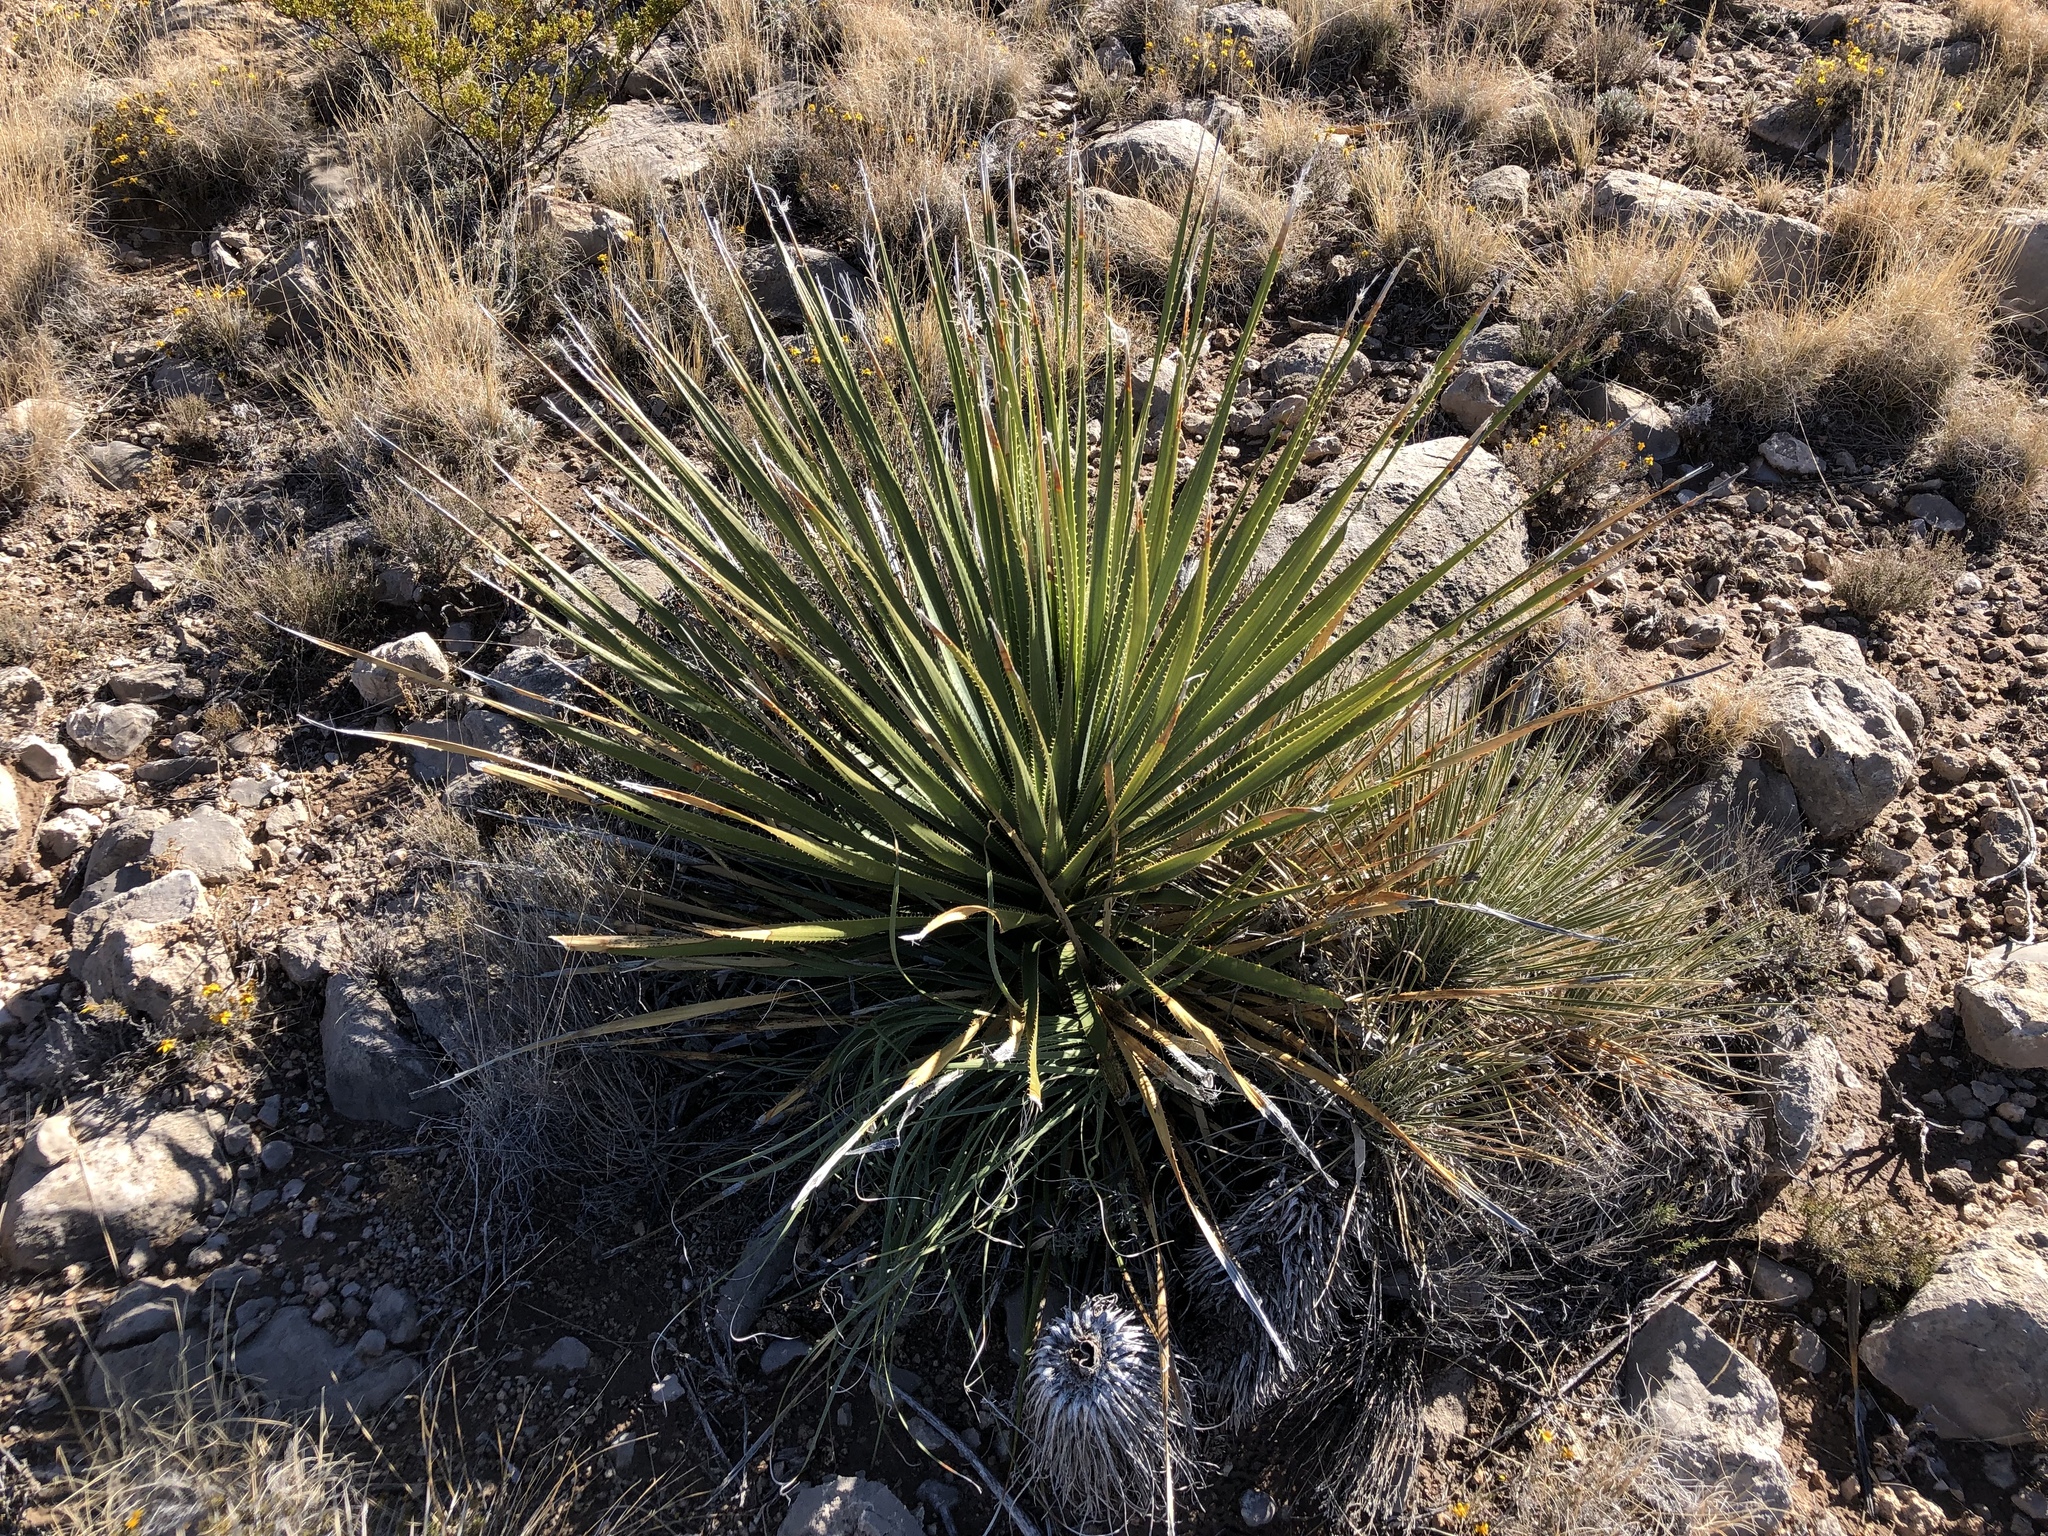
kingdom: Plantae
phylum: Tracheophyta
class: Liliopsida
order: Asparagales
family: Asparagaceae
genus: Dasylirion
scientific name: Dasylirion wheeleri
